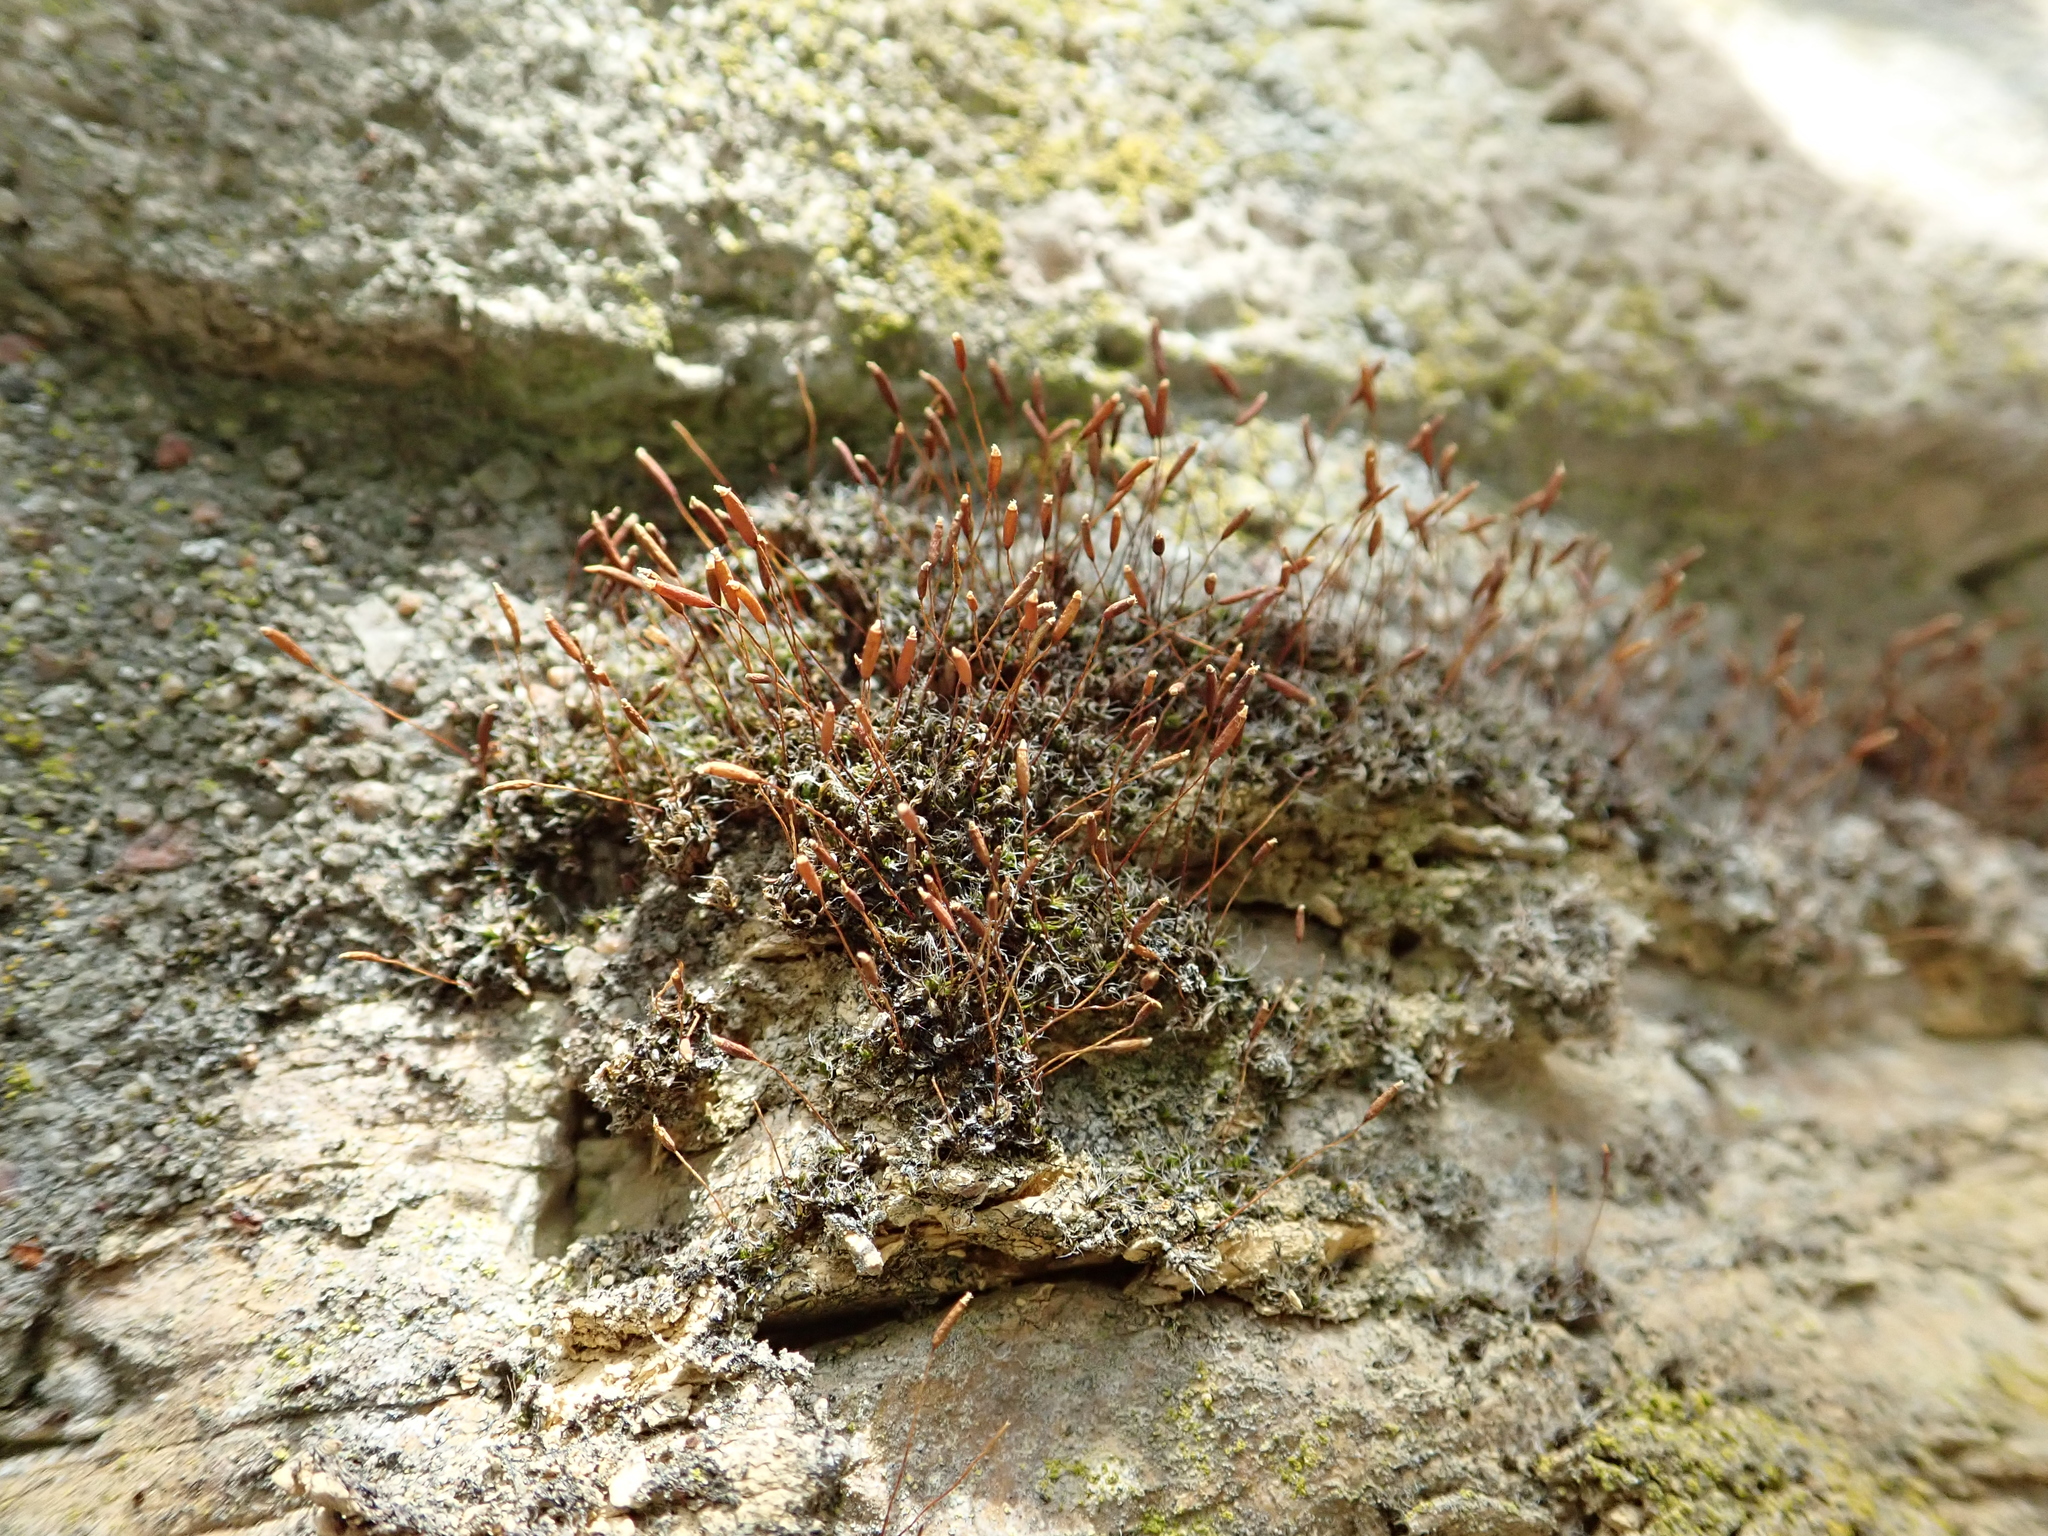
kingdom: Plantae
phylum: Bryophyta
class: Bryopsida
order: Pottiales
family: Pottiaceae
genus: Tortula
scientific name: Tortula muralis
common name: Wall screw-moss
